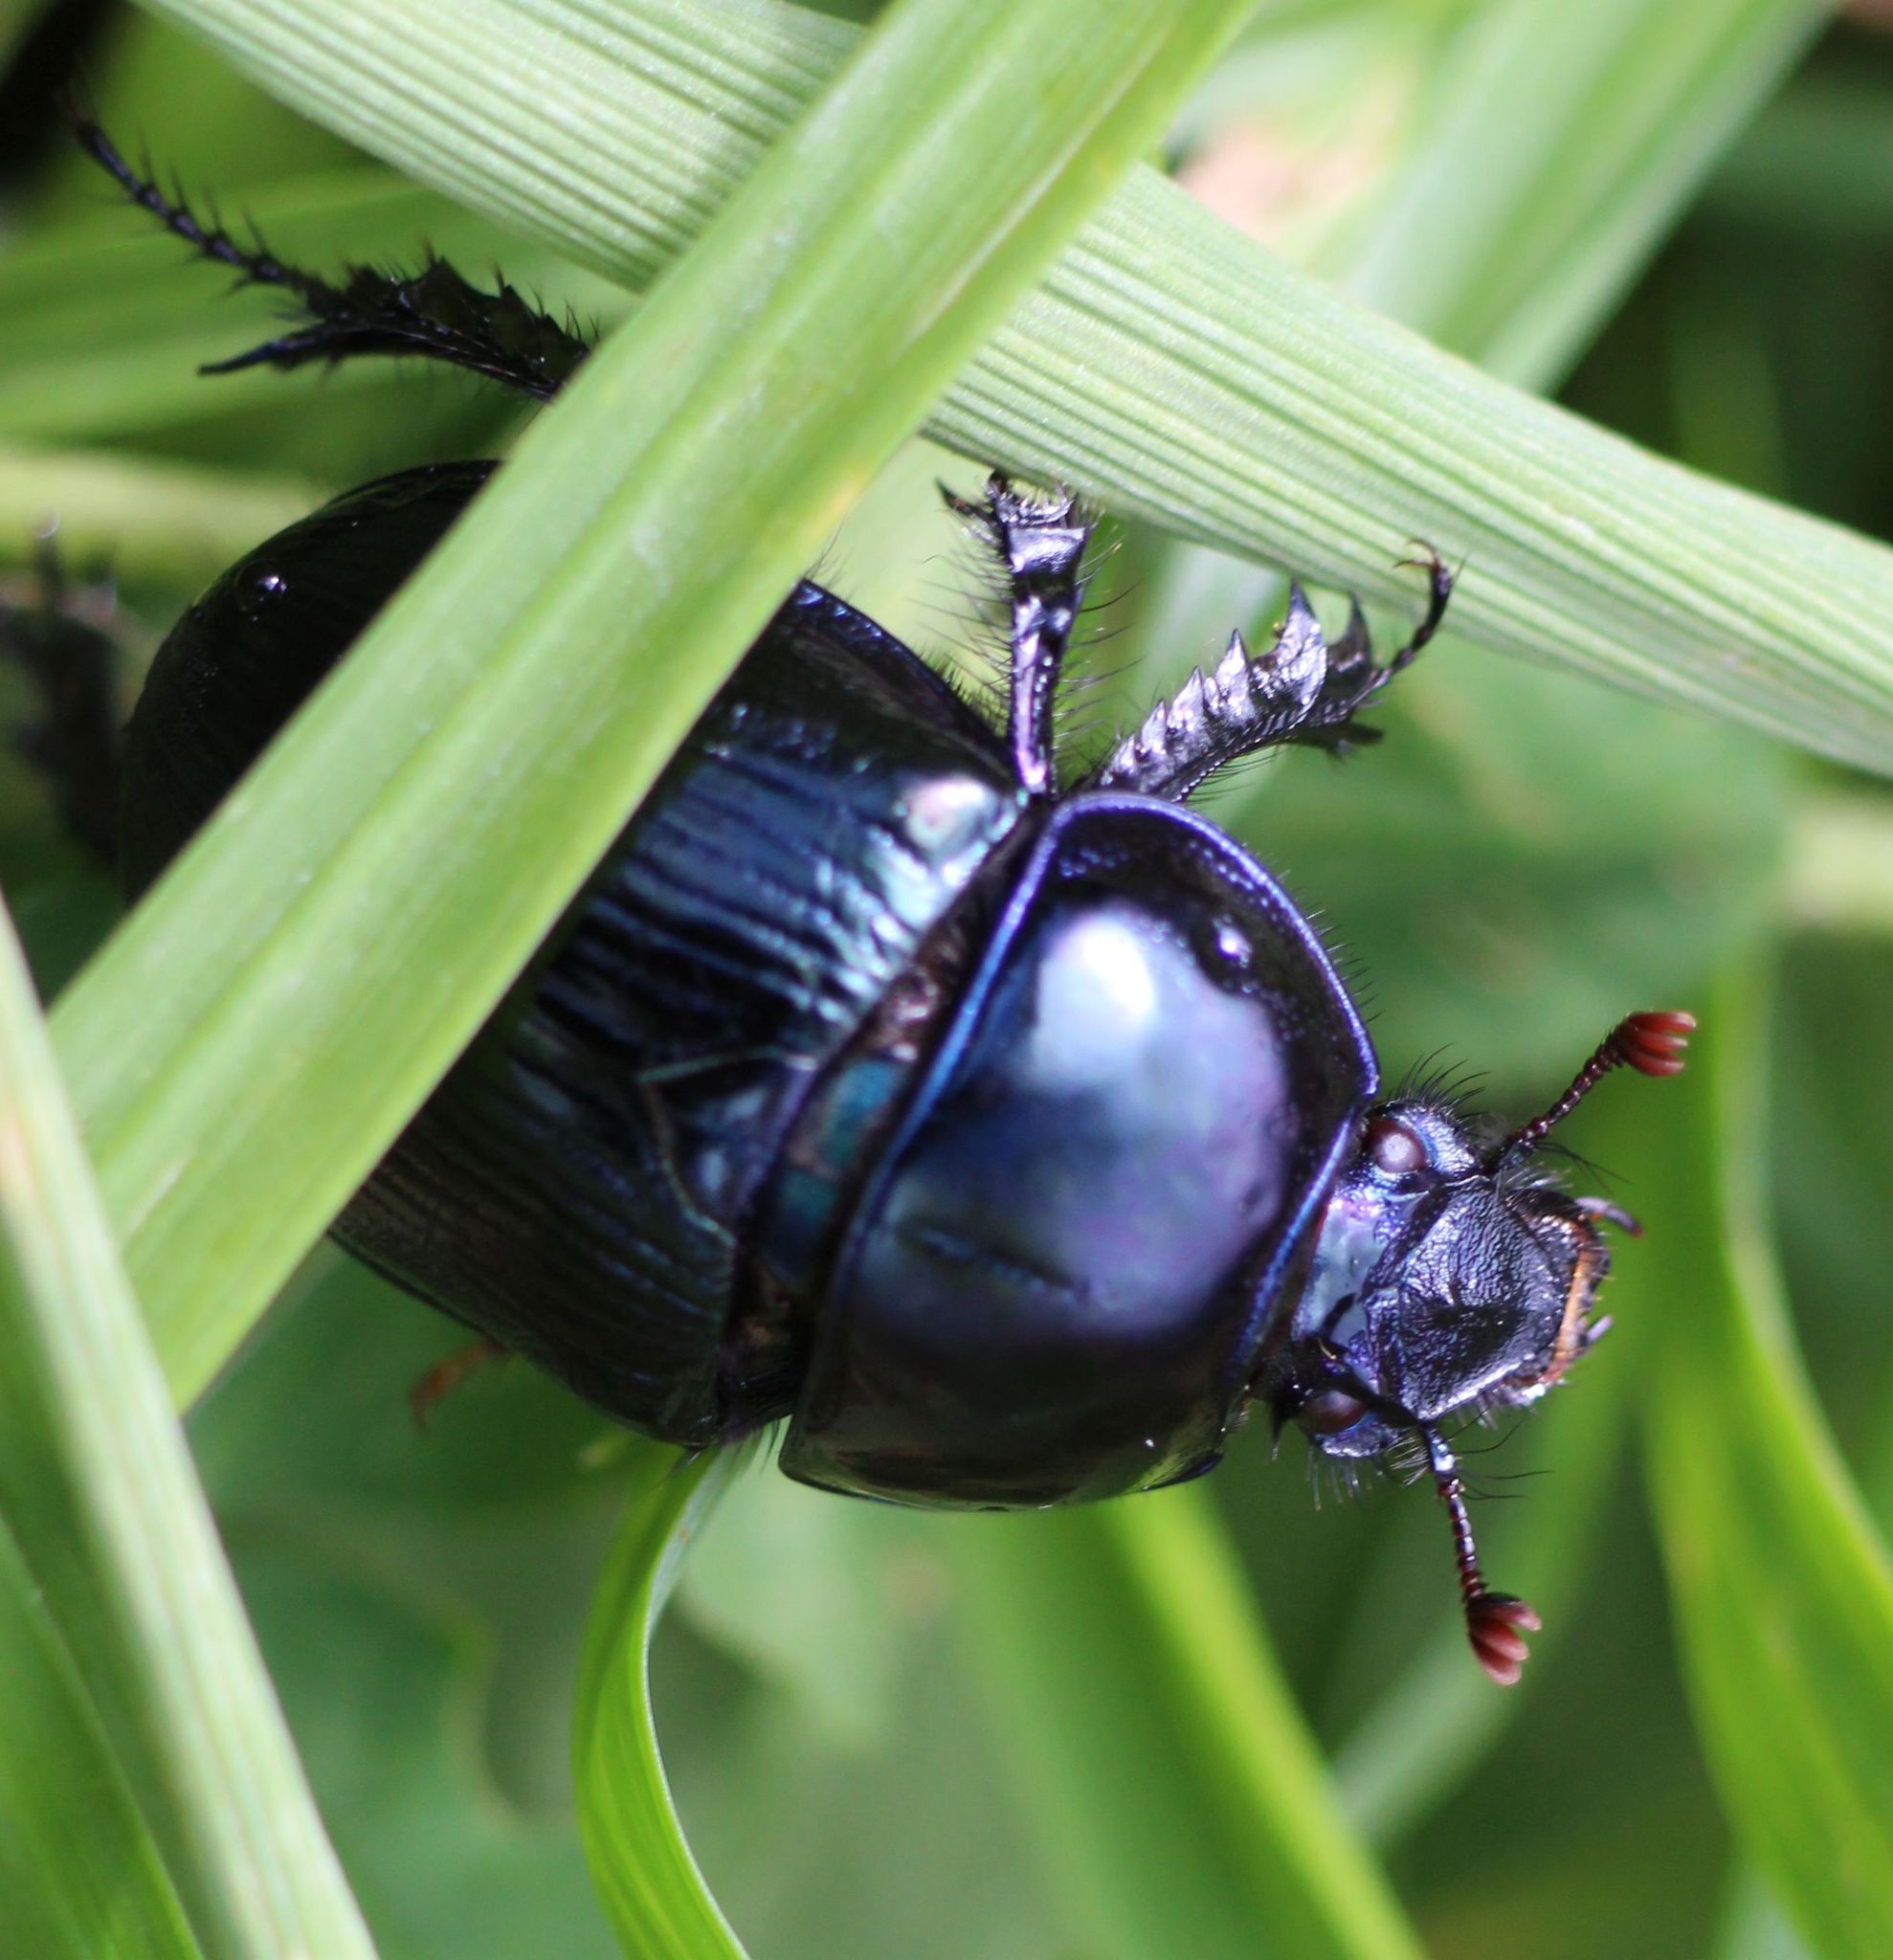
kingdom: Animalia
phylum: Arthropoda
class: Insecta
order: Coleoptera
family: Geotrupidae
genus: Anoplotrupes
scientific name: Anoplotrupes stercorosus
